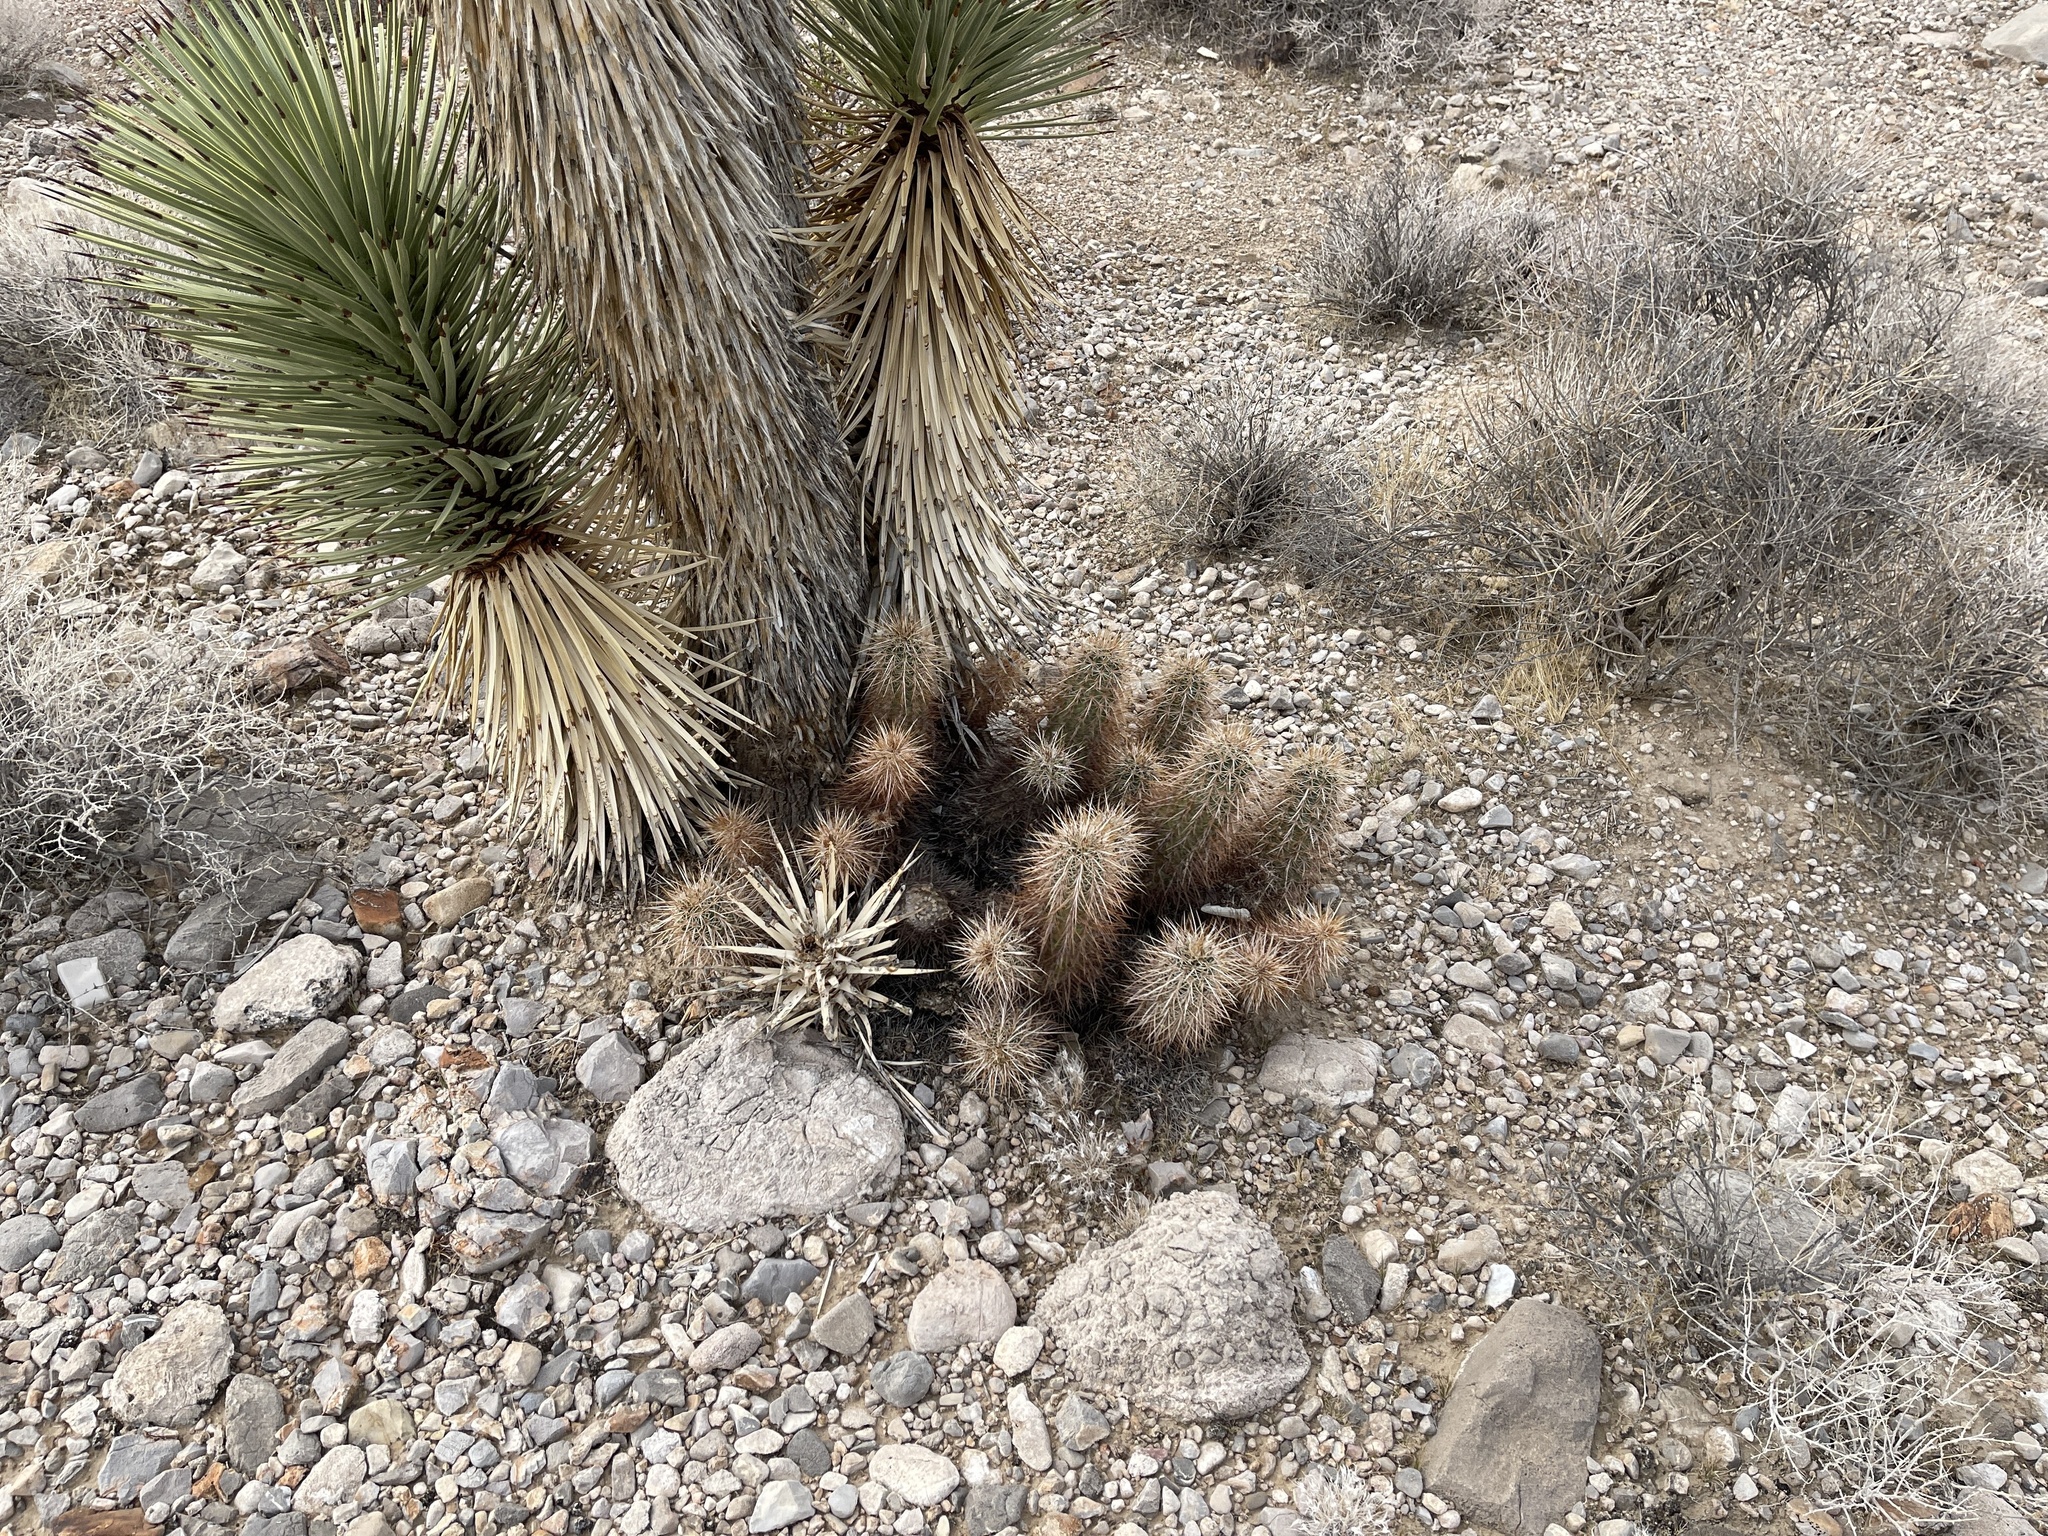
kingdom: Plantae
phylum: Tracheophyta
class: Magnoliopsida
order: Caryophyllales
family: Cactaceae
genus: Echinocereus
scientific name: Echinocereus engelmannii
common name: Engelmann's hedgehog cactus
